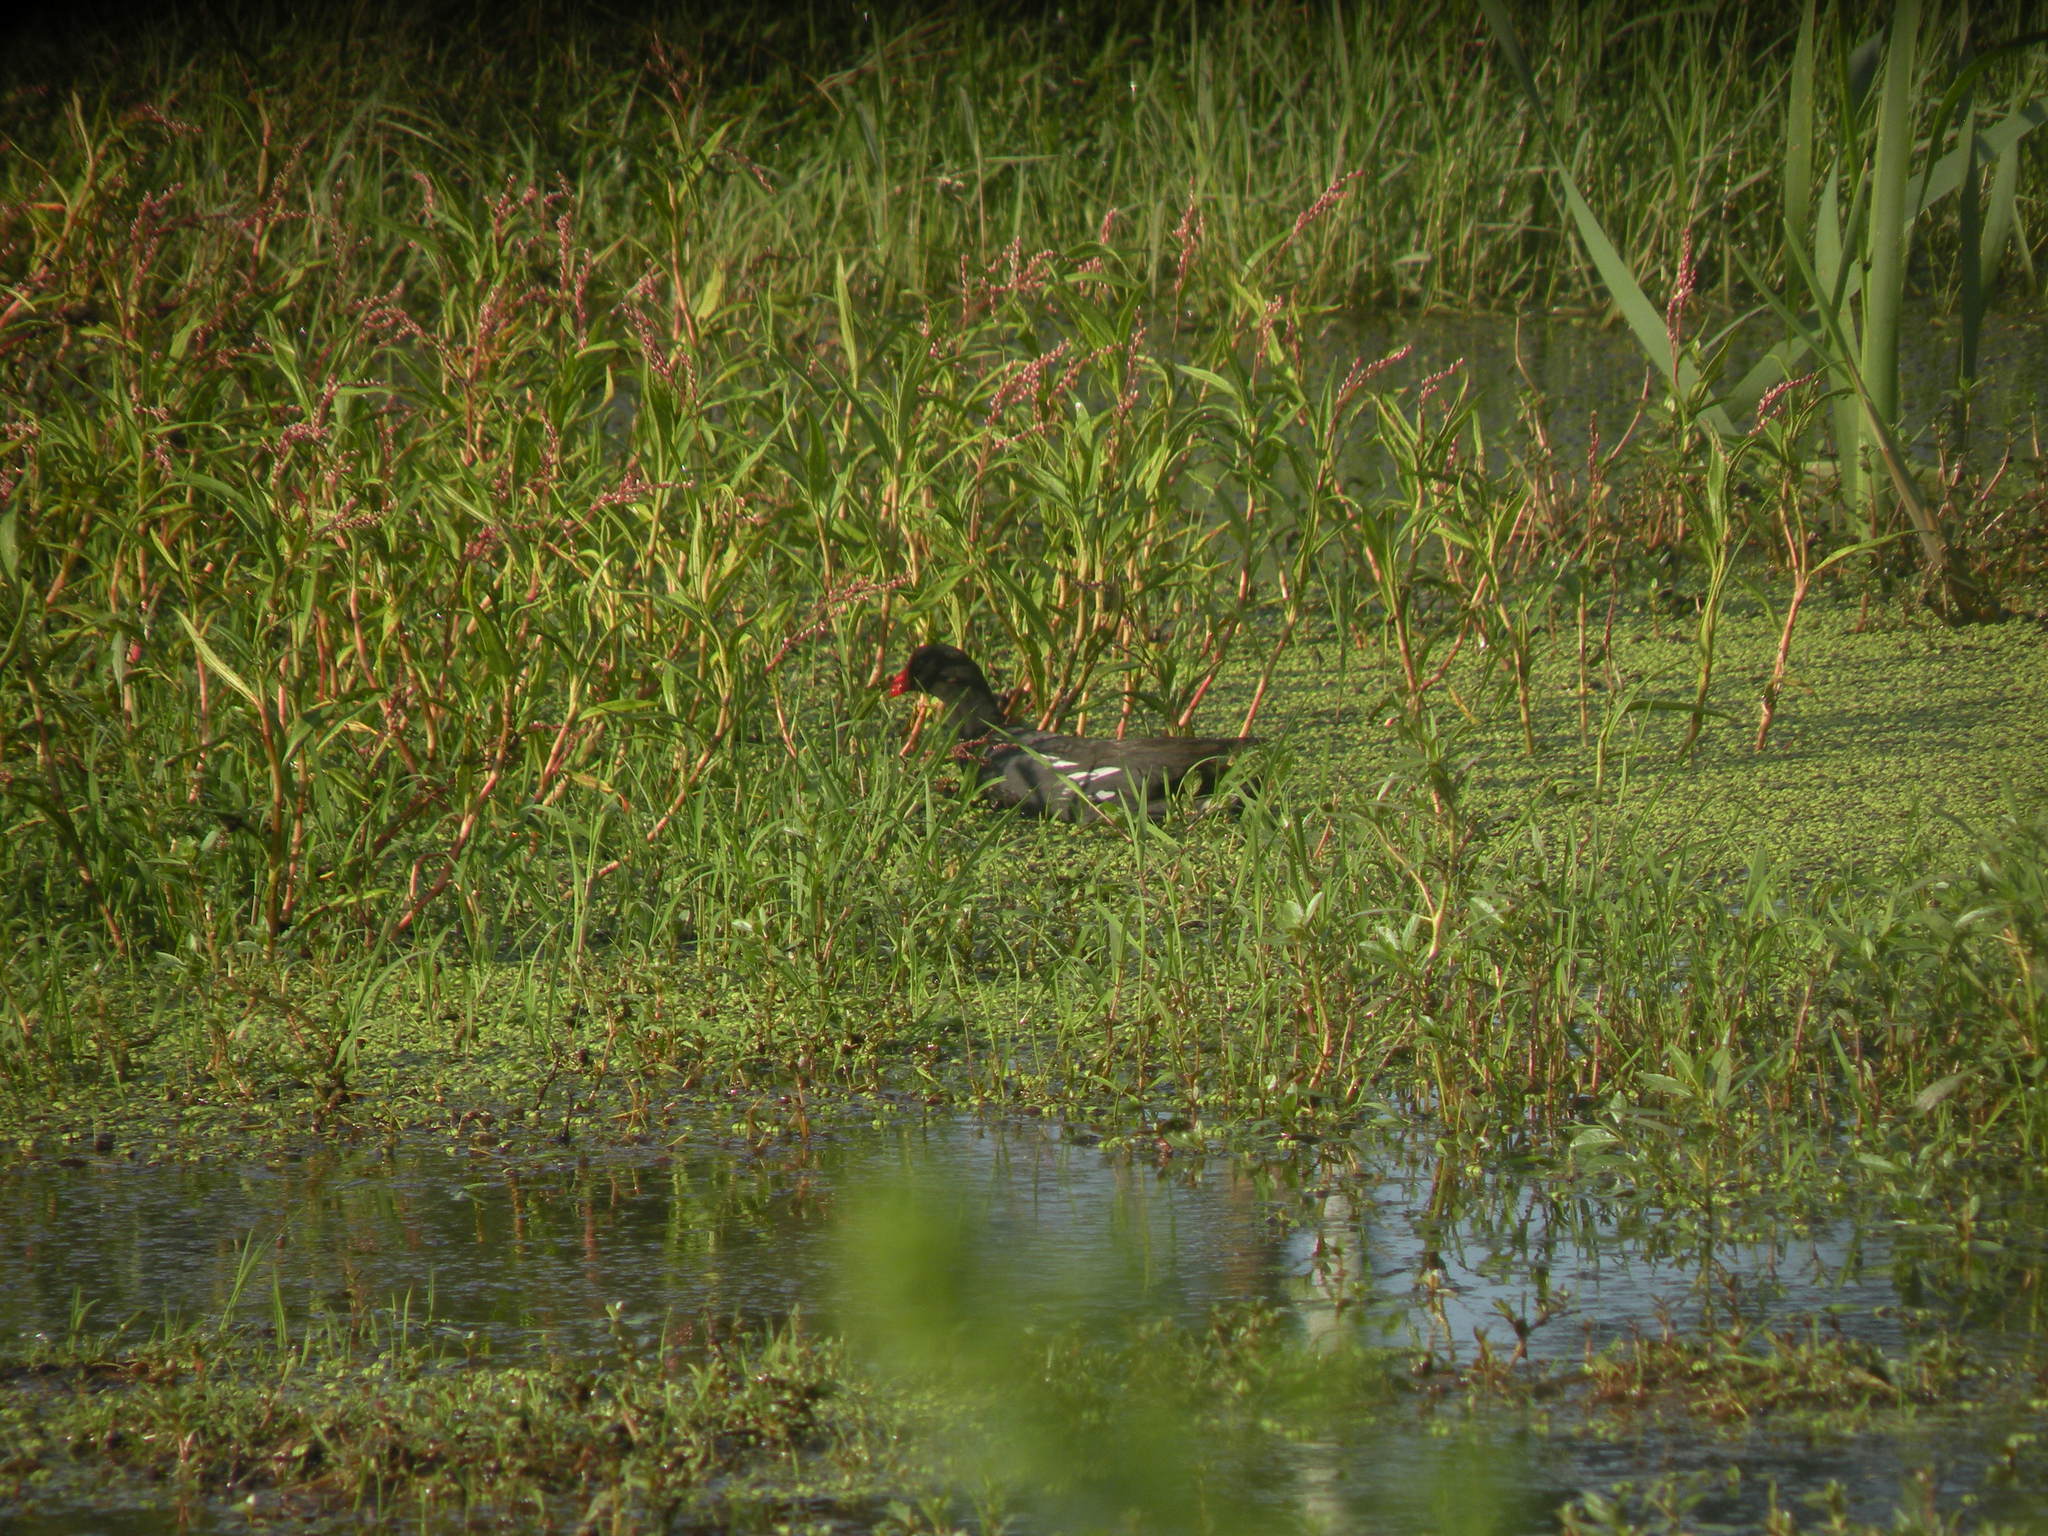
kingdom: Animalia
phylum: Chordata
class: Aves
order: Gruiformes
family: Rallidae
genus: Gallinula
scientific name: Gallinula chloropus
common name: Common moorhen
